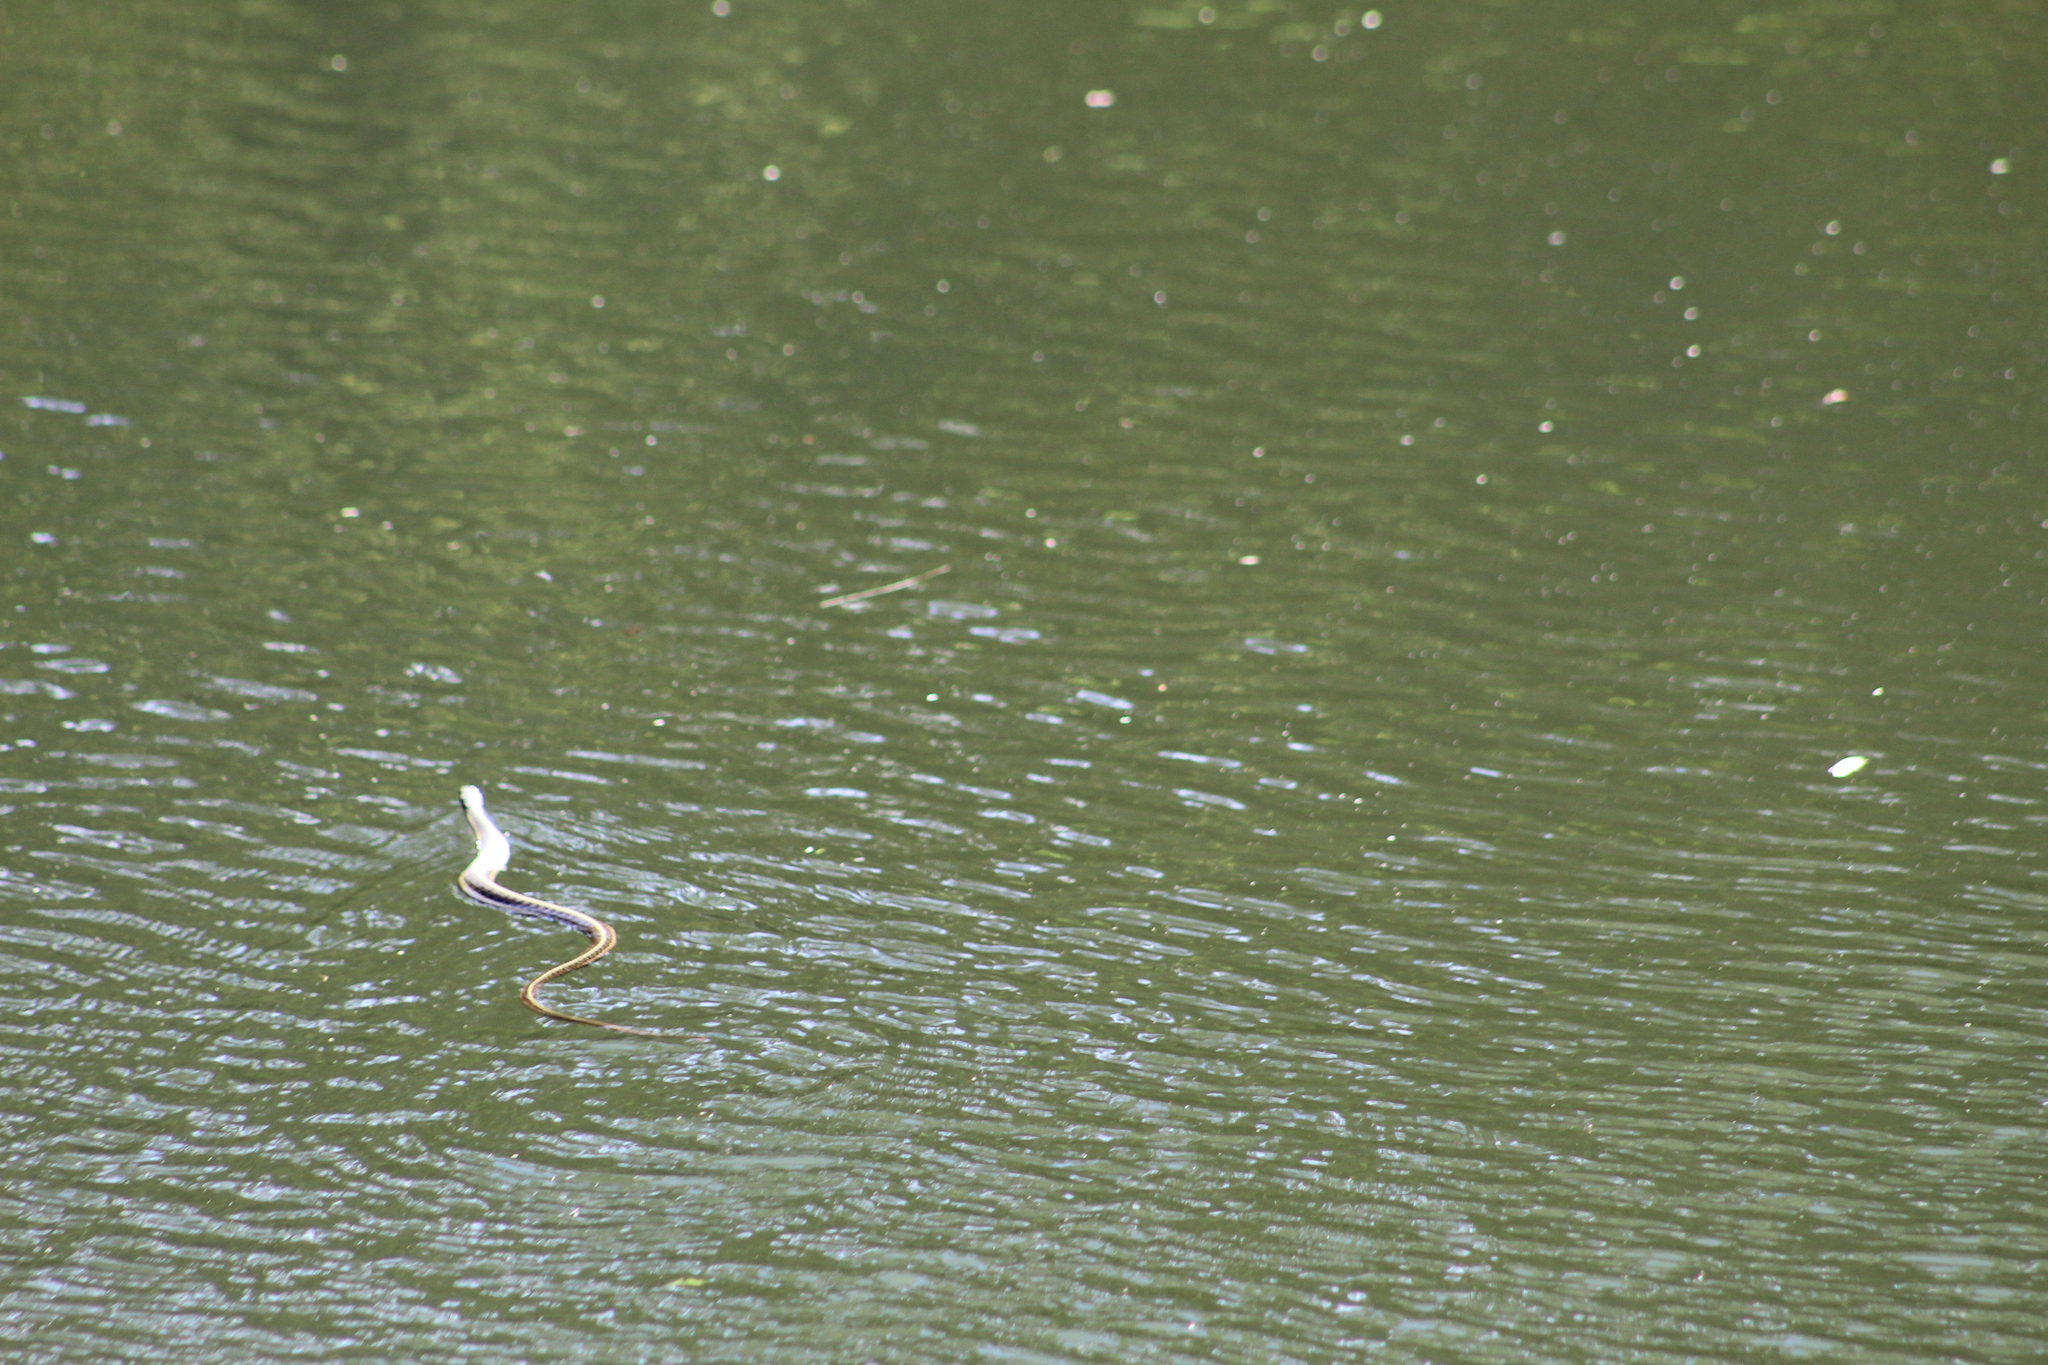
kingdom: Animalia
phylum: Chordata
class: Squamata
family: Colubridae
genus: Thamnophis
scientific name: Thamnophis sirtalis
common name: Common garter snake
